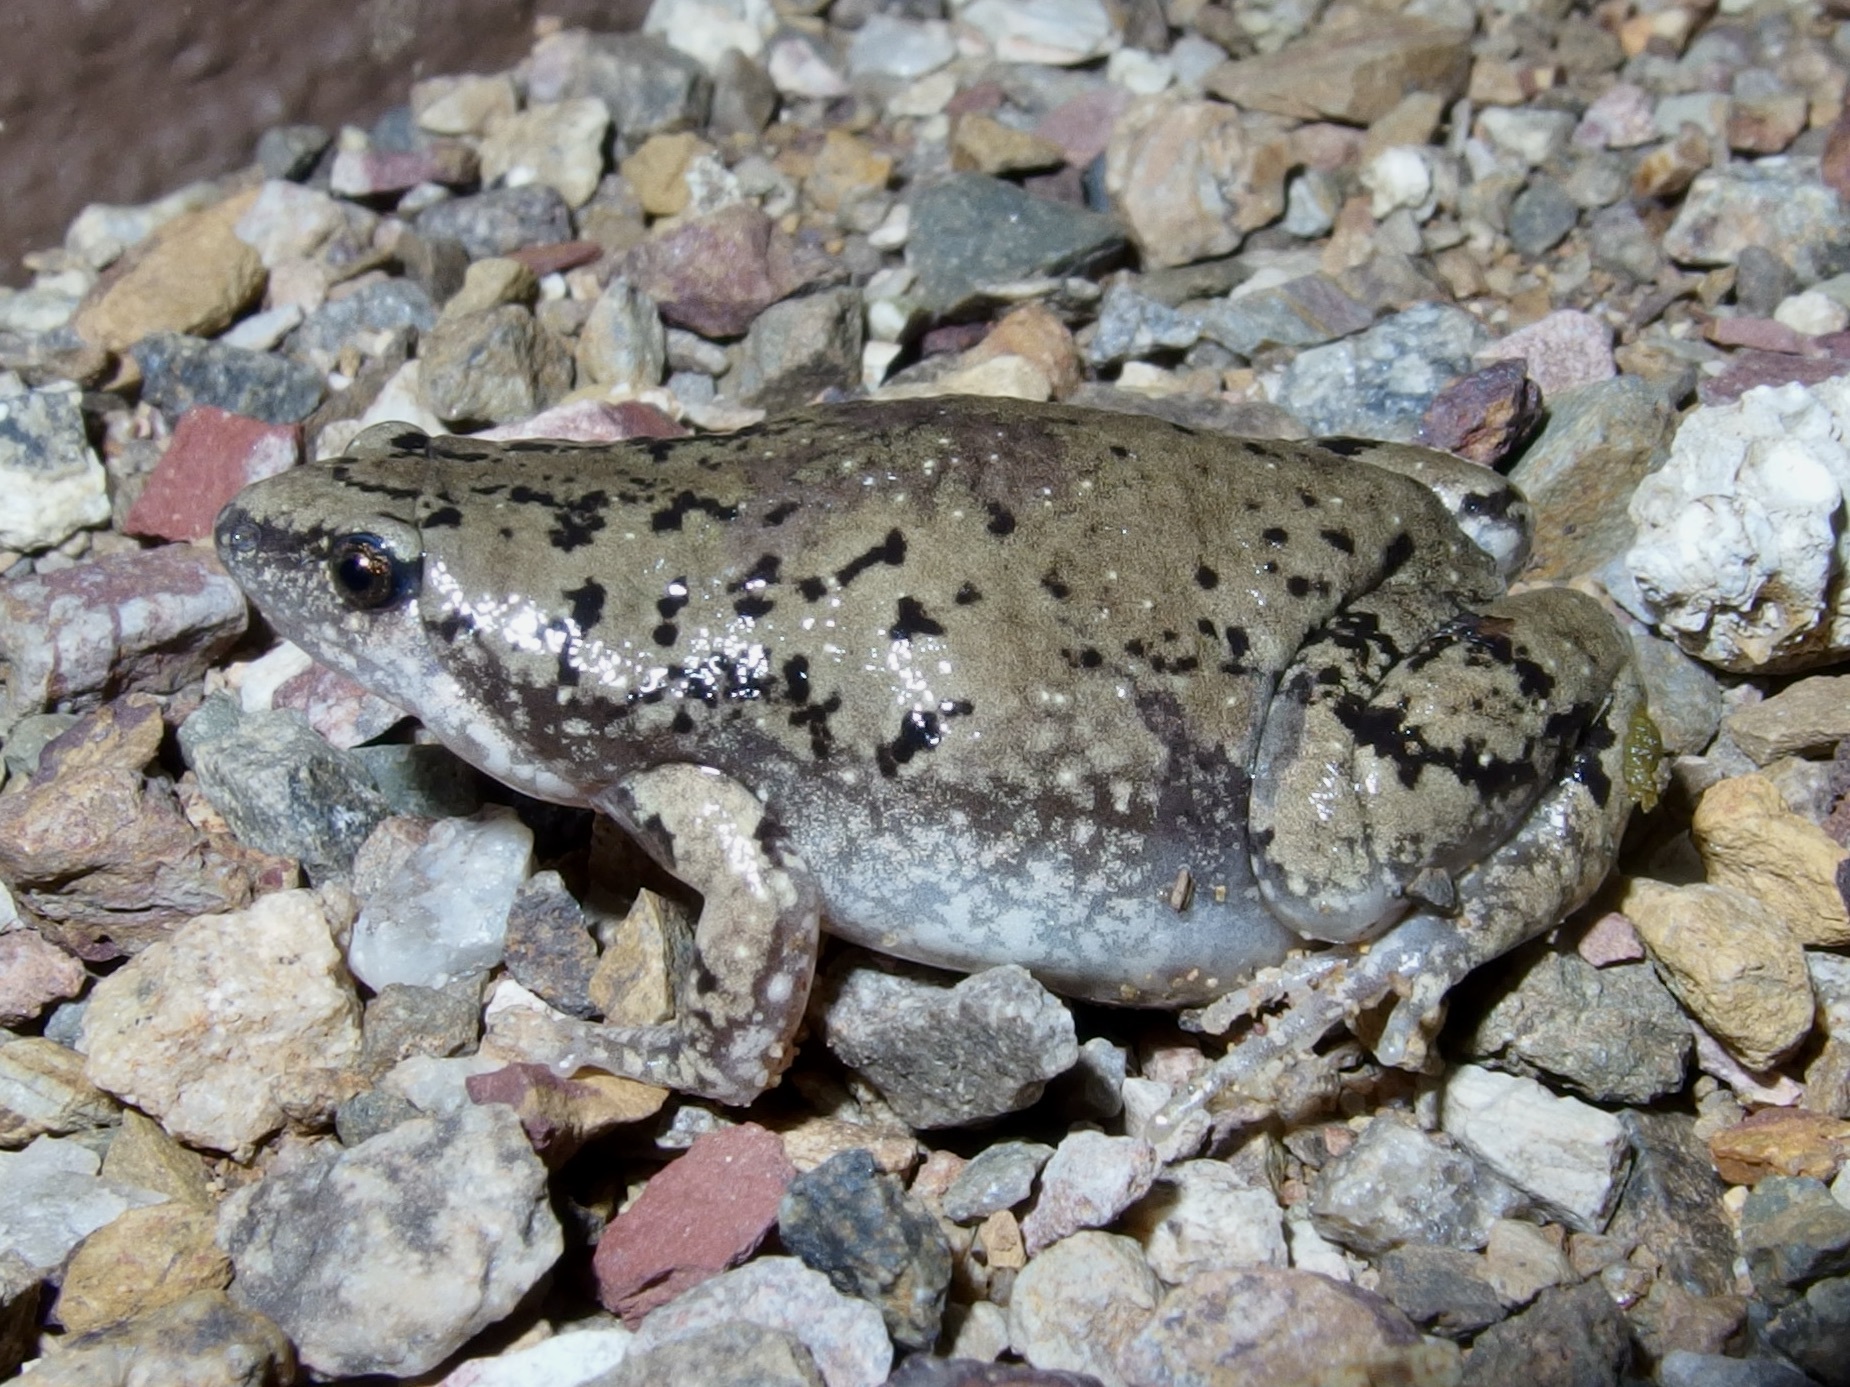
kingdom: Animalia
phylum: Chordata
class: Amphibia
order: Anura
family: Microhylidae
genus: Gastrophryne
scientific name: Gastrophryne mazatlanensis
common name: Sinaloan narrow-mouthed toad
